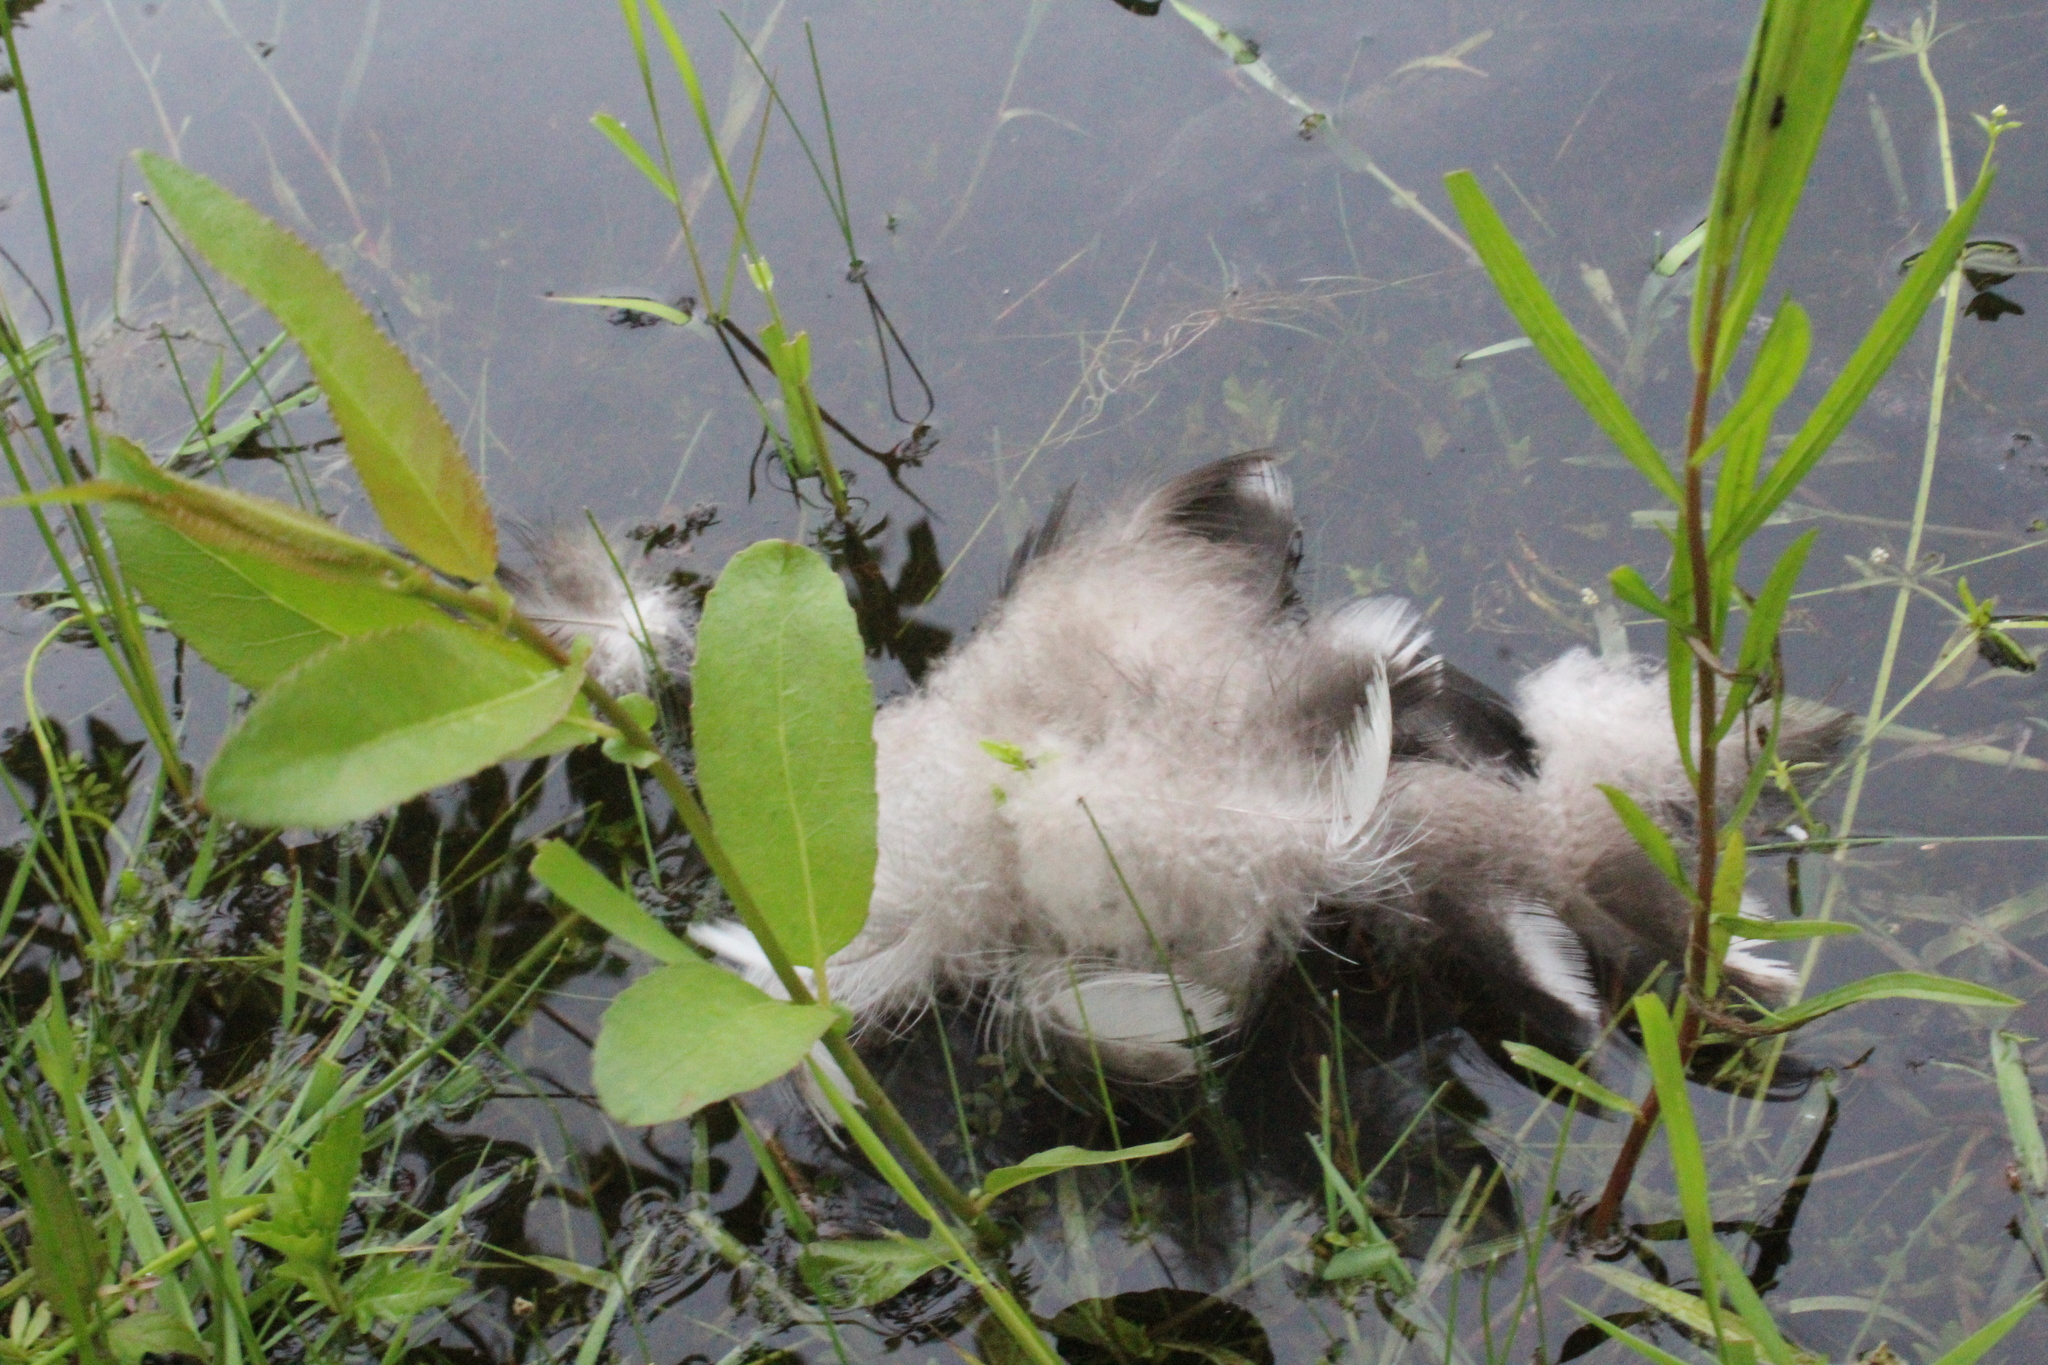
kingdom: Animalia
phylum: Chordata
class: Aves
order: Anseriformes
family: Anatidae
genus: Branta
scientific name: Branta canadensis
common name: Canada goose
